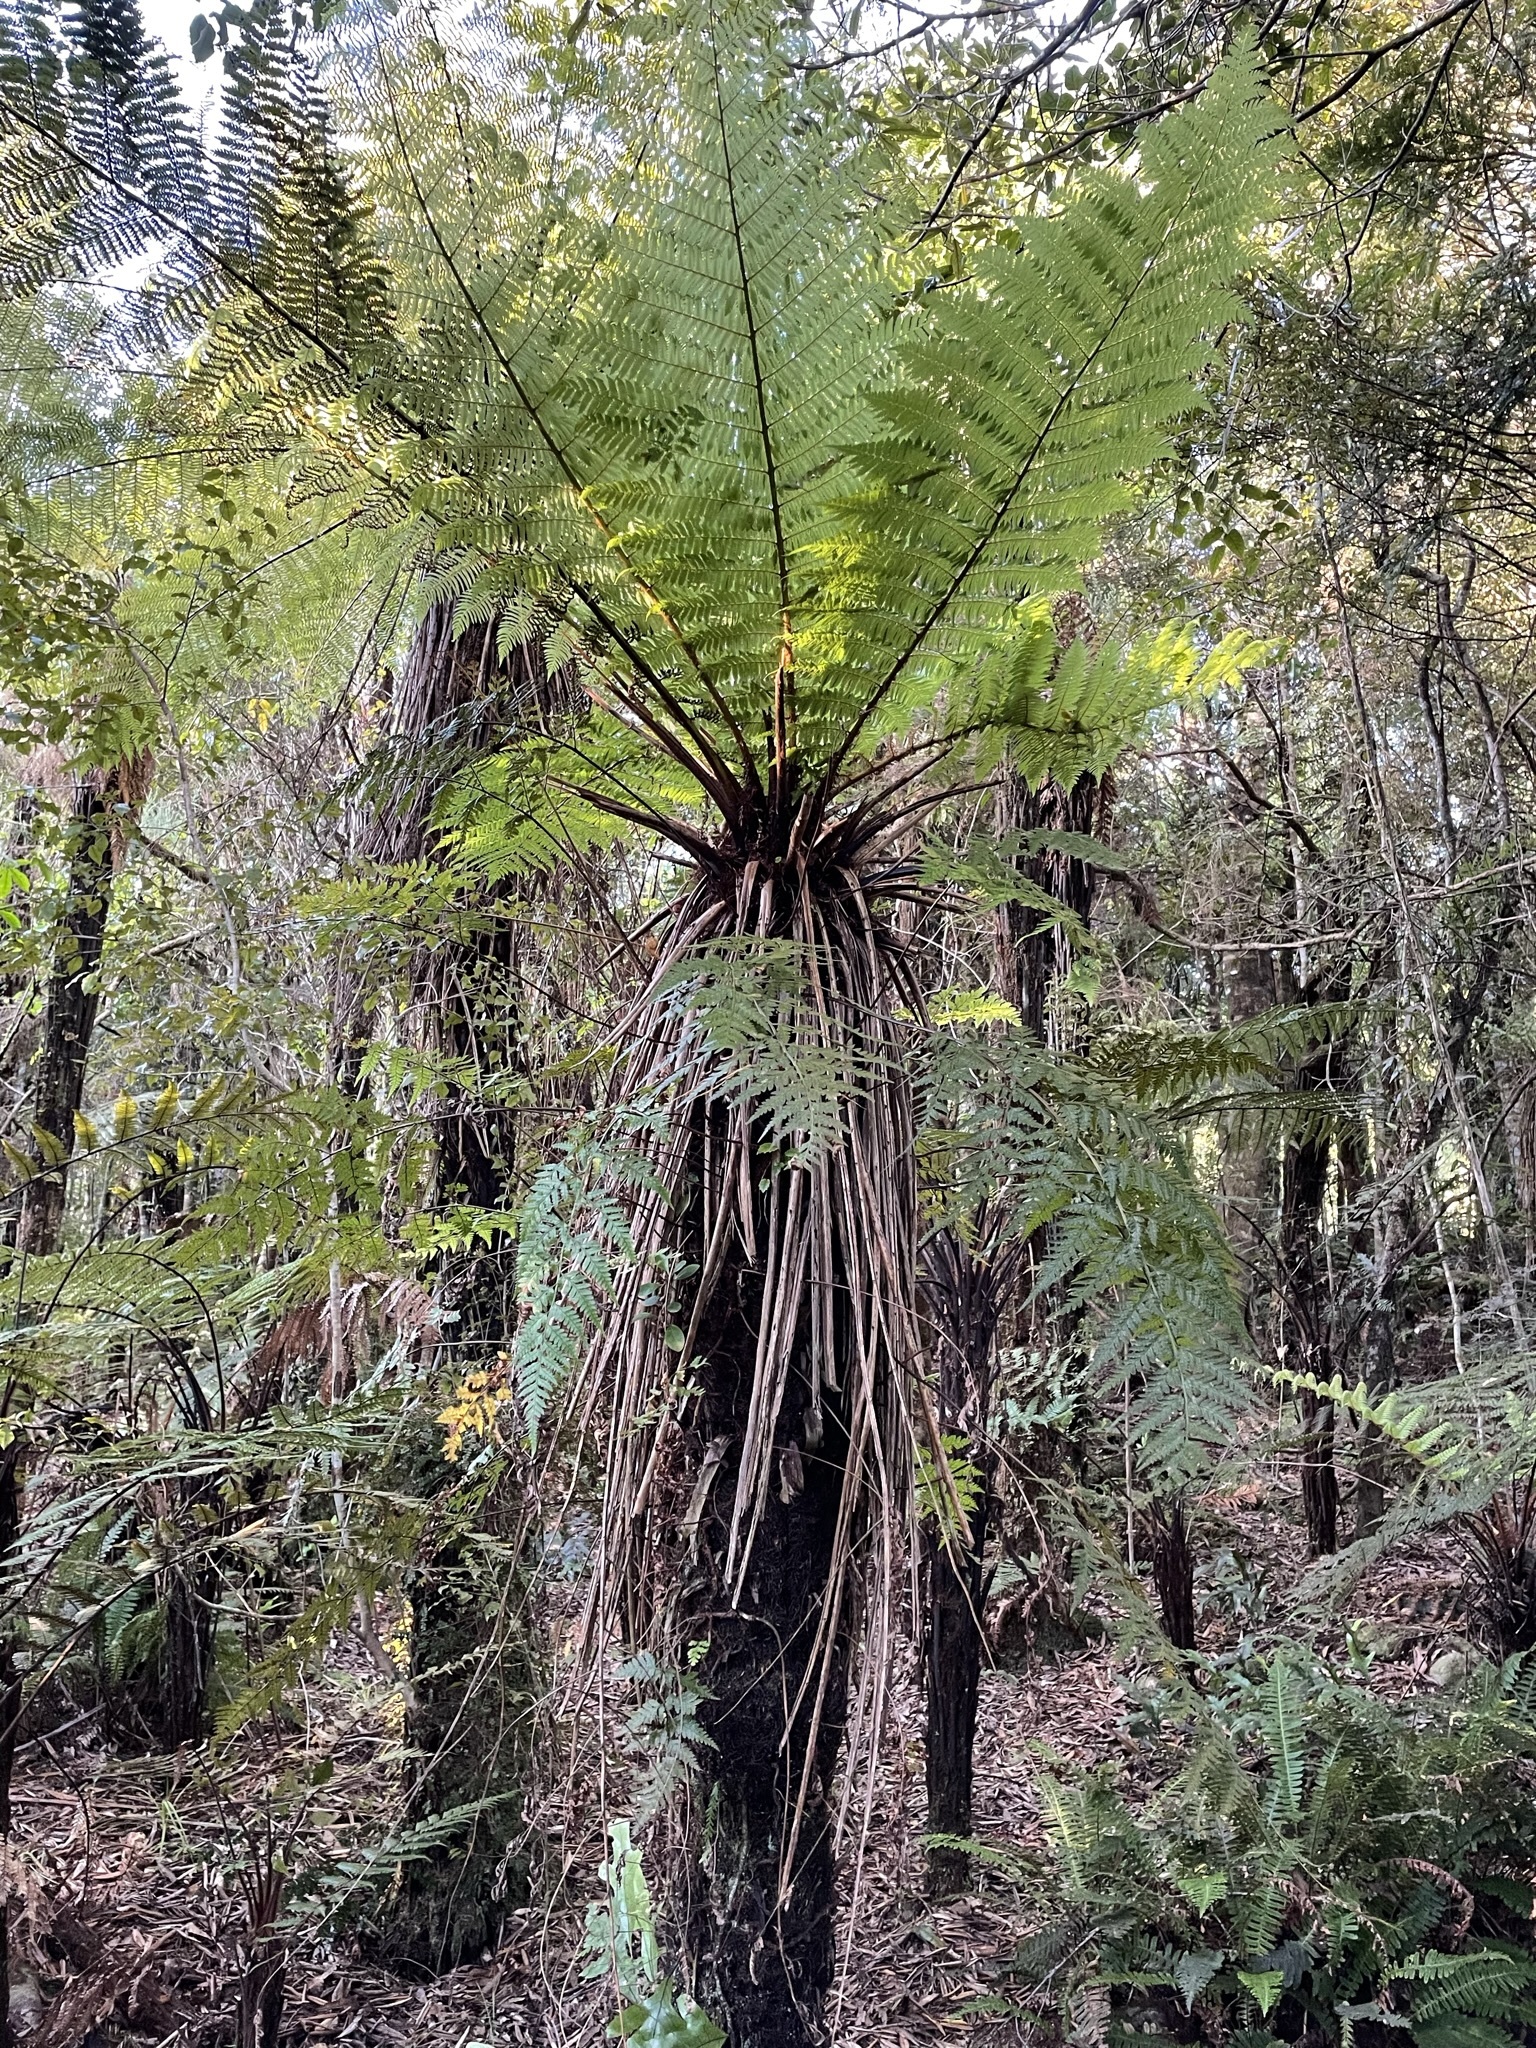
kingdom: Plantae
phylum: Tracheophyta
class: Polypodiopsida
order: Cyatheales
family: Cyatheaceae
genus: Alsophila
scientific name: Alsophila smithii
